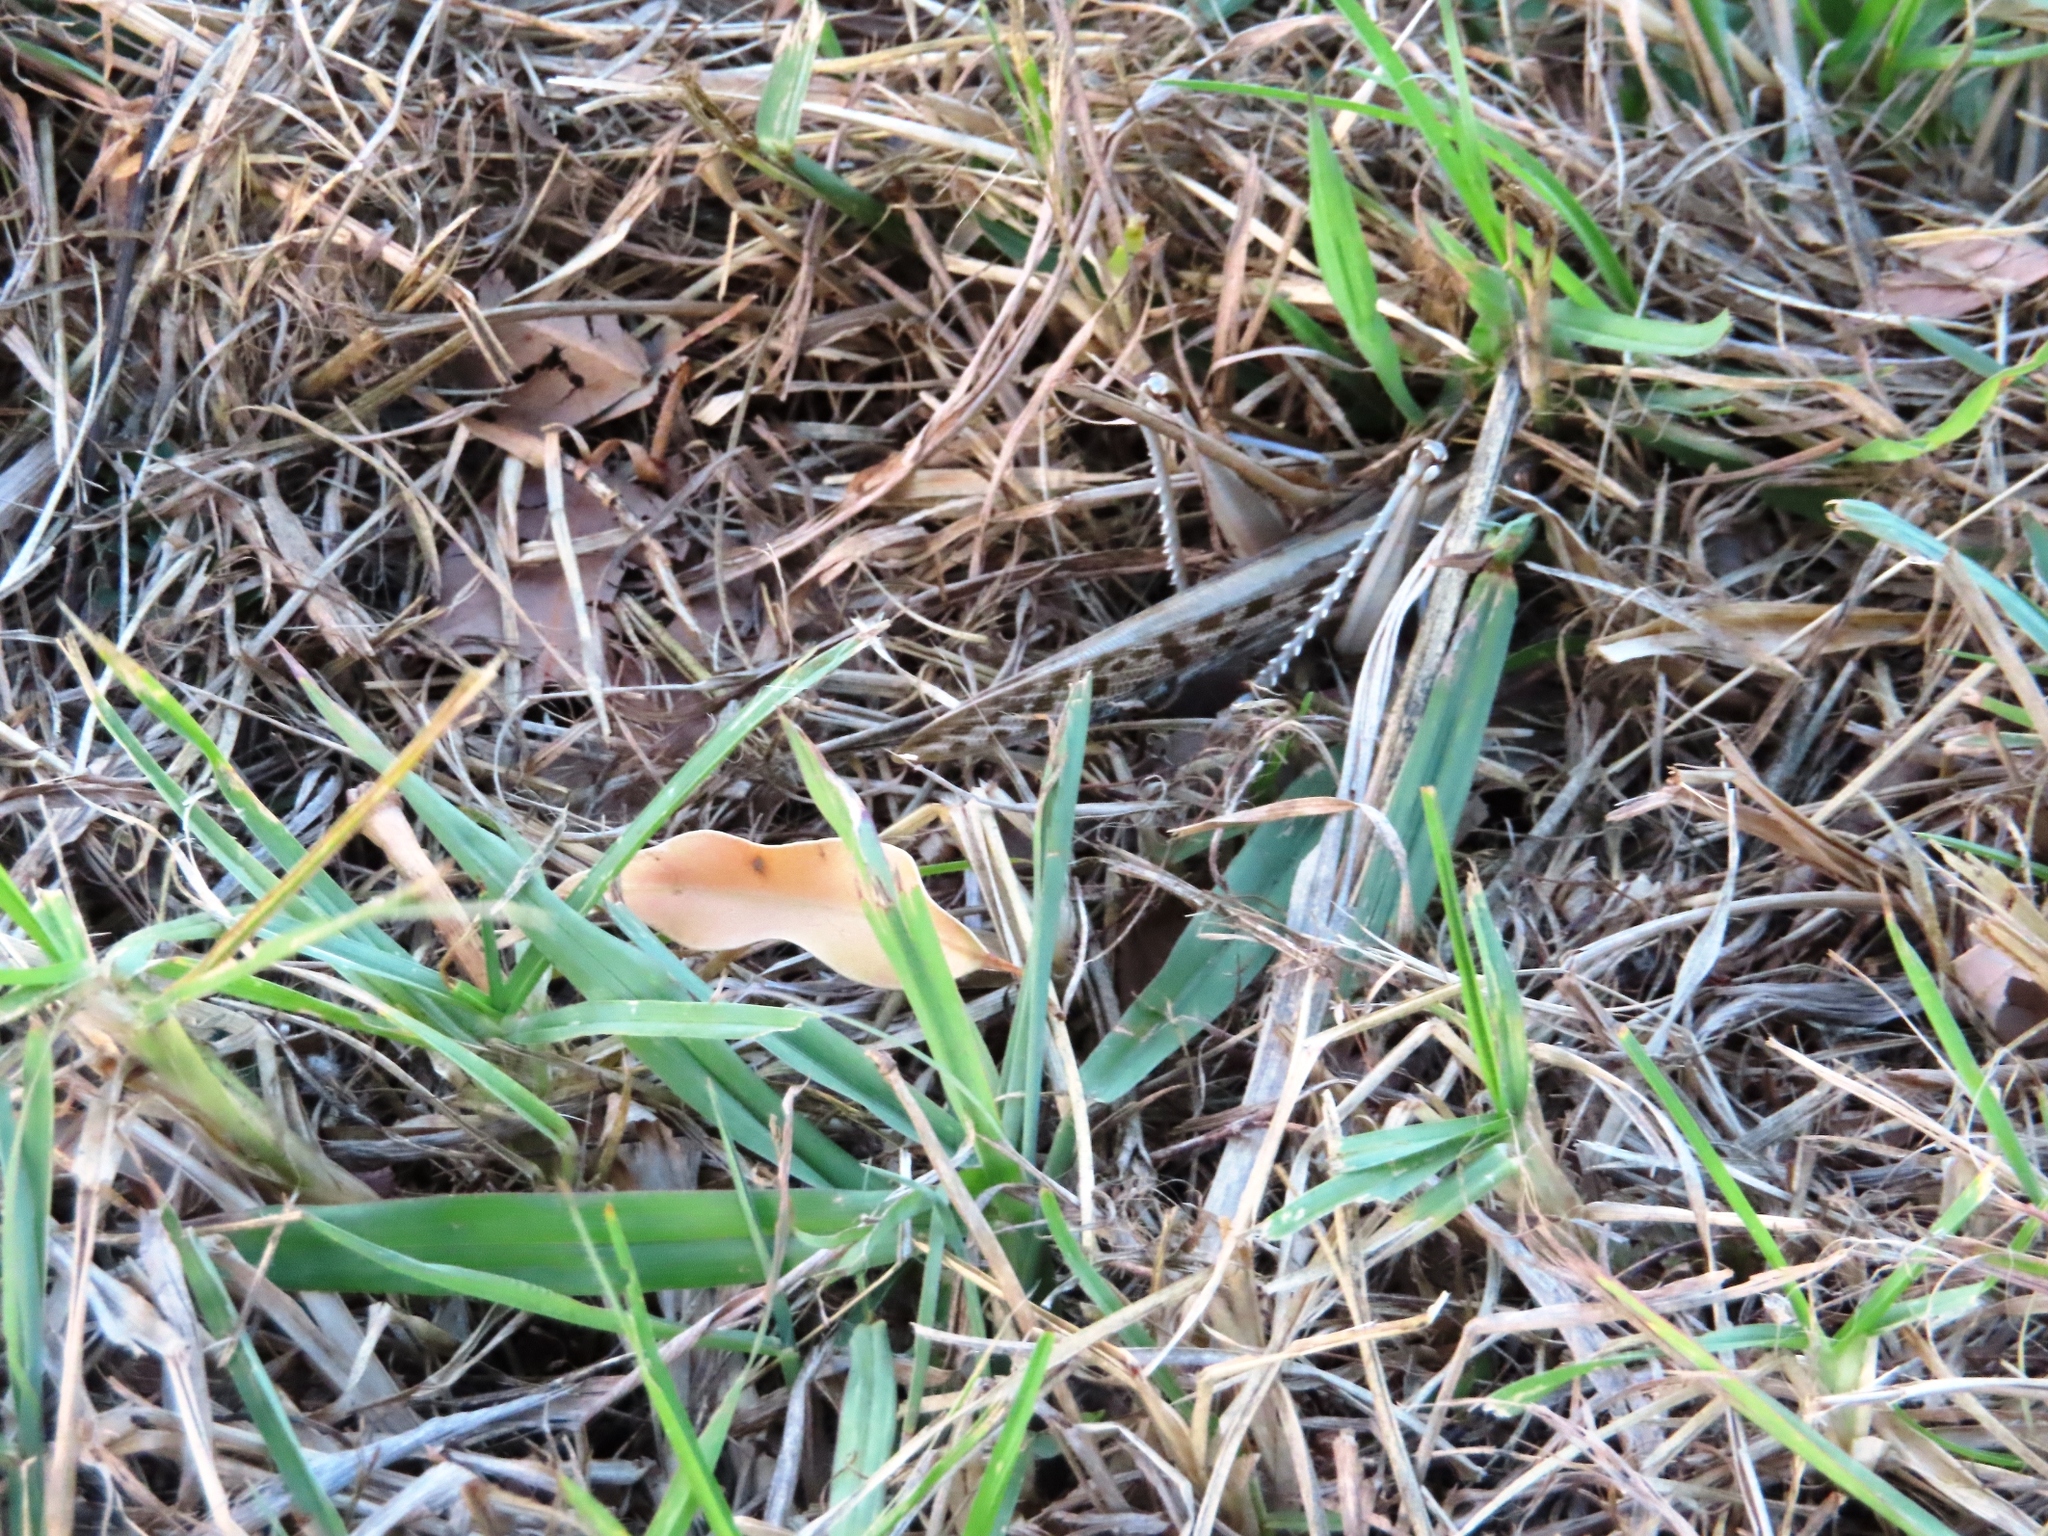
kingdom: Animalia
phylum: Arthropoda
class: Insecta
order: Orthoptera
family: Acrididae
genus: Schistocerca
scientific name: Schistocerca gregaria
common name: Desert locust
